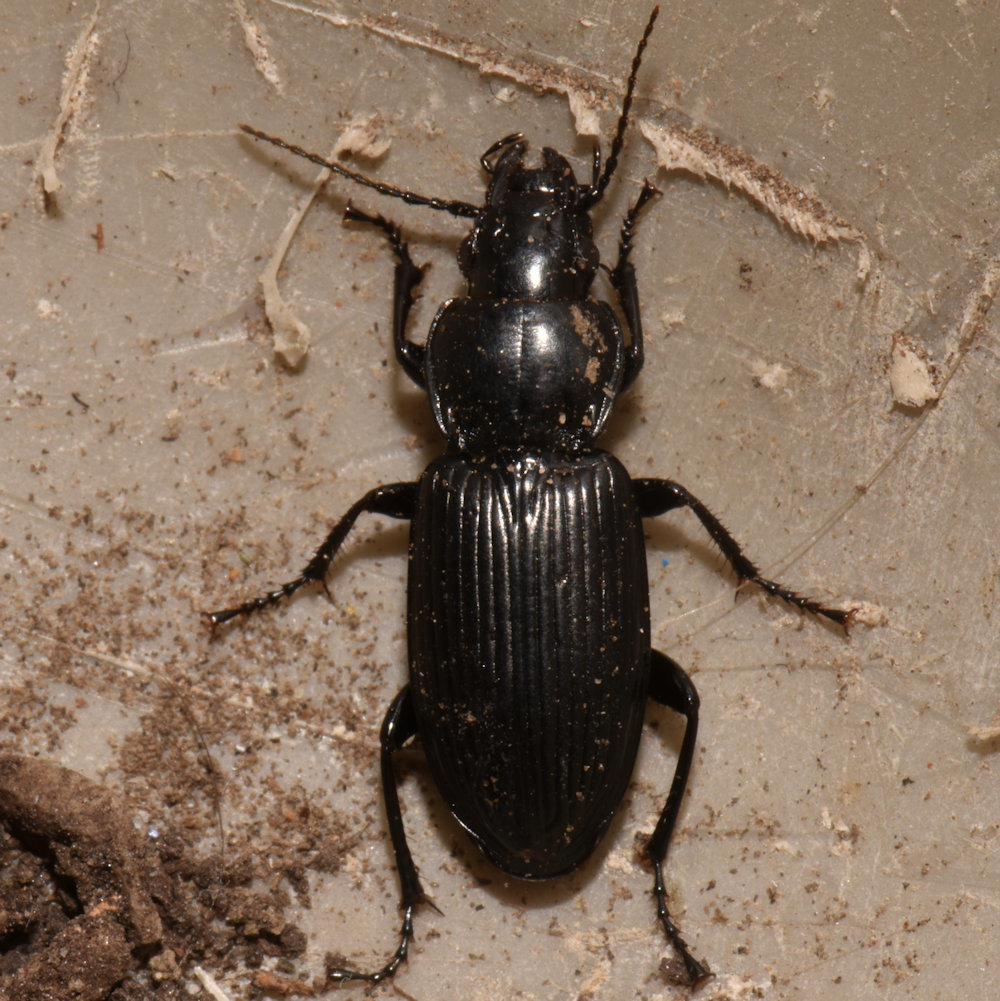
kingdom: Animalia
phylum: Arthropoda
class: Insecta
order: Coleoptera
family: Carabidae
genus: Pterostichus
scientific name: Pterostichus melanarius
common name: European dark harp ground beetle
